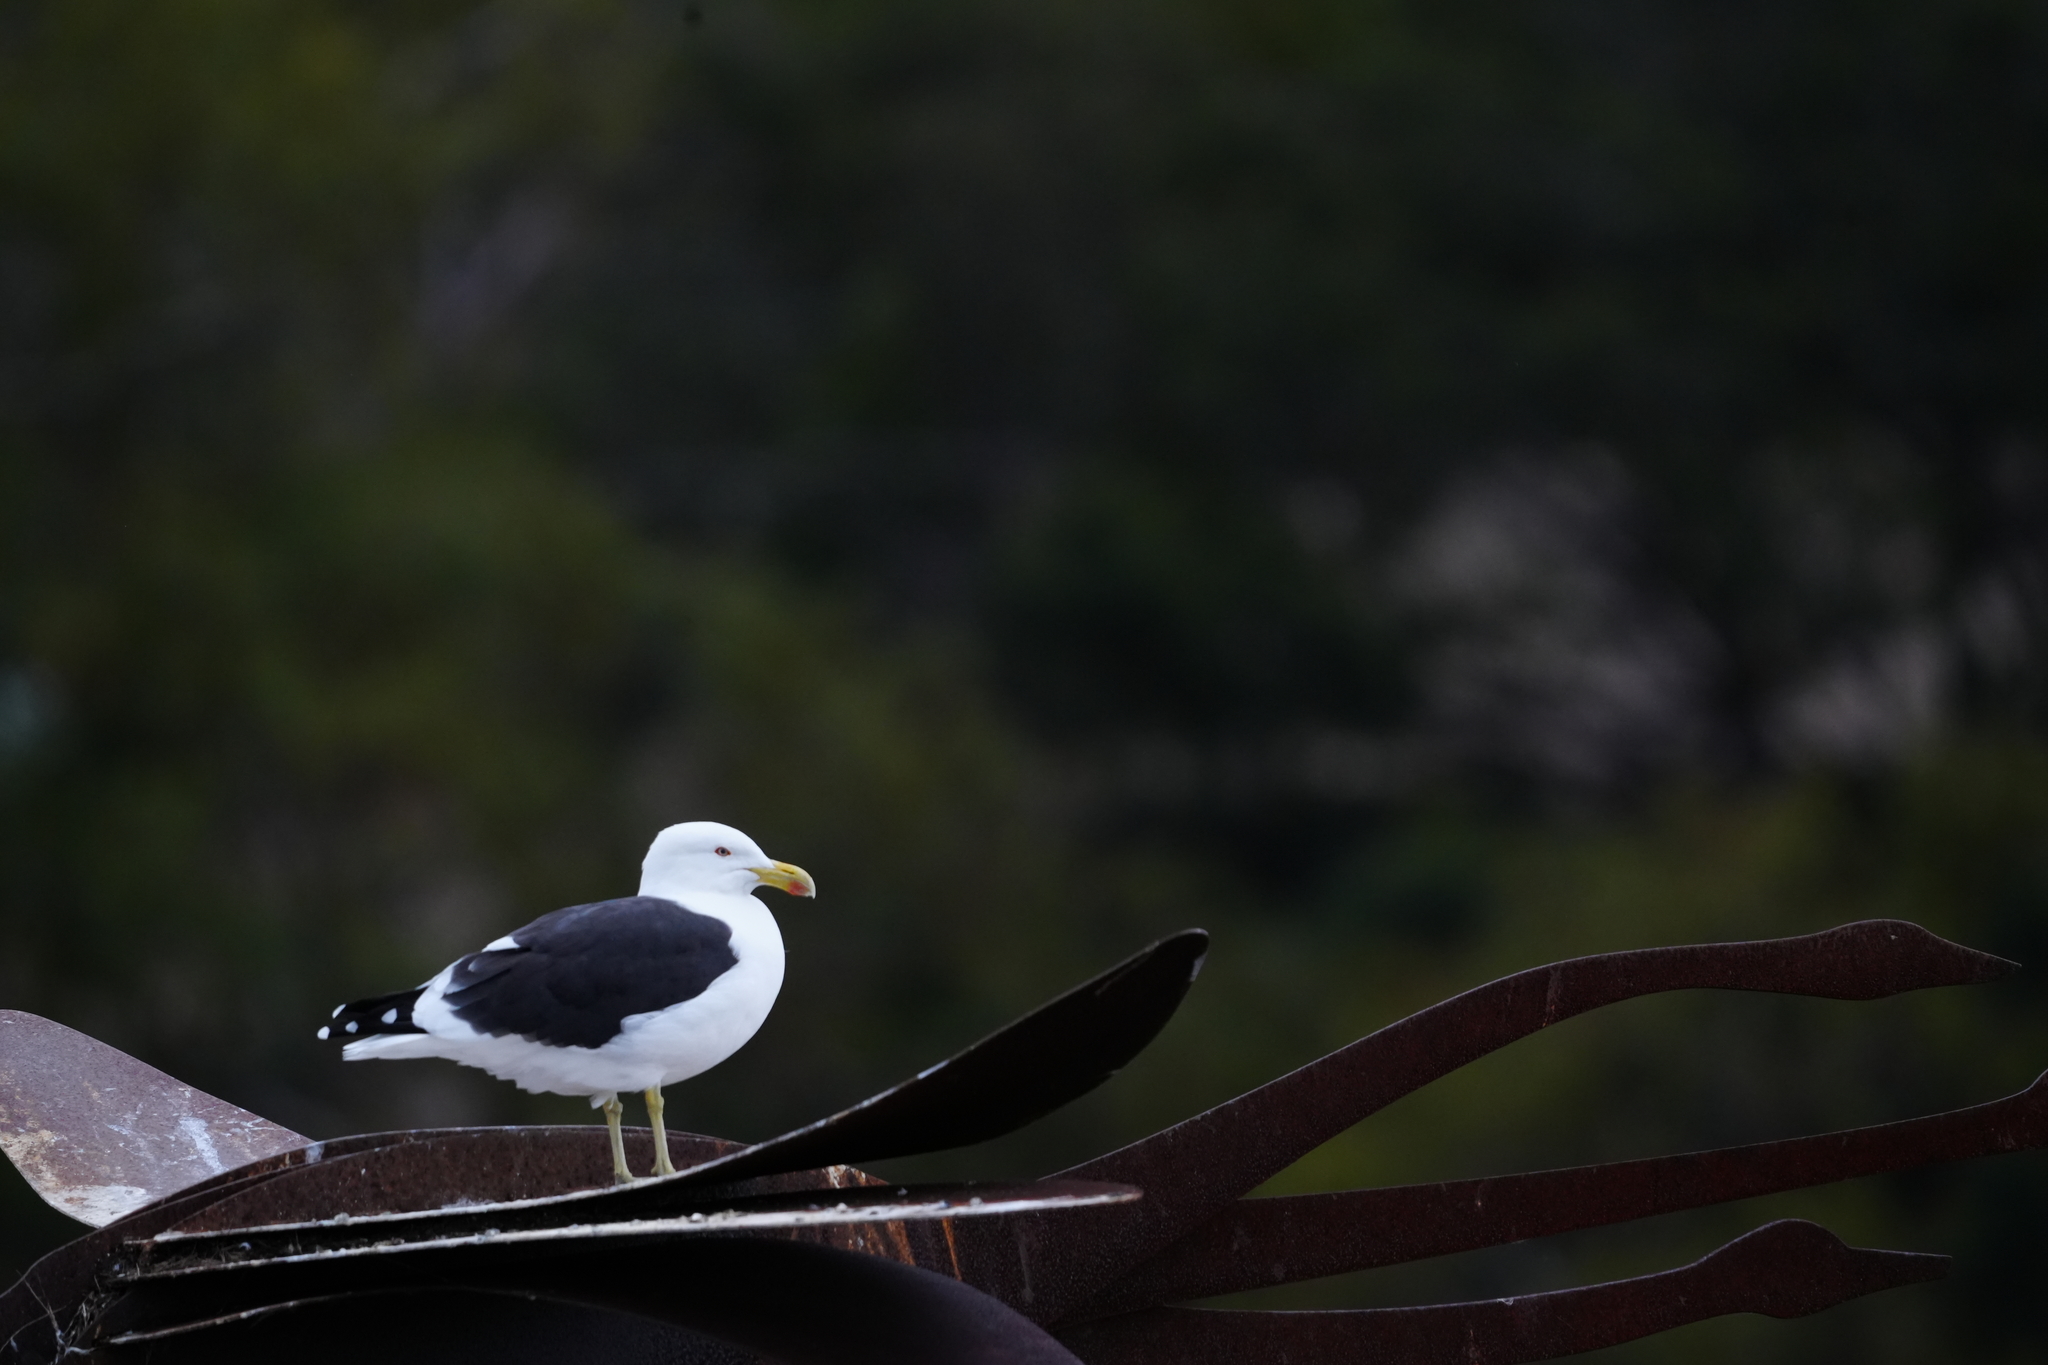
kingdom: Animalia
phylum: Chordata
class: Aves
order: Charadriiformes
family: Laridae
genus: Chroicocephalus
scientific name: Chroicocephalus novaehollandiae
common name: Silver gull
